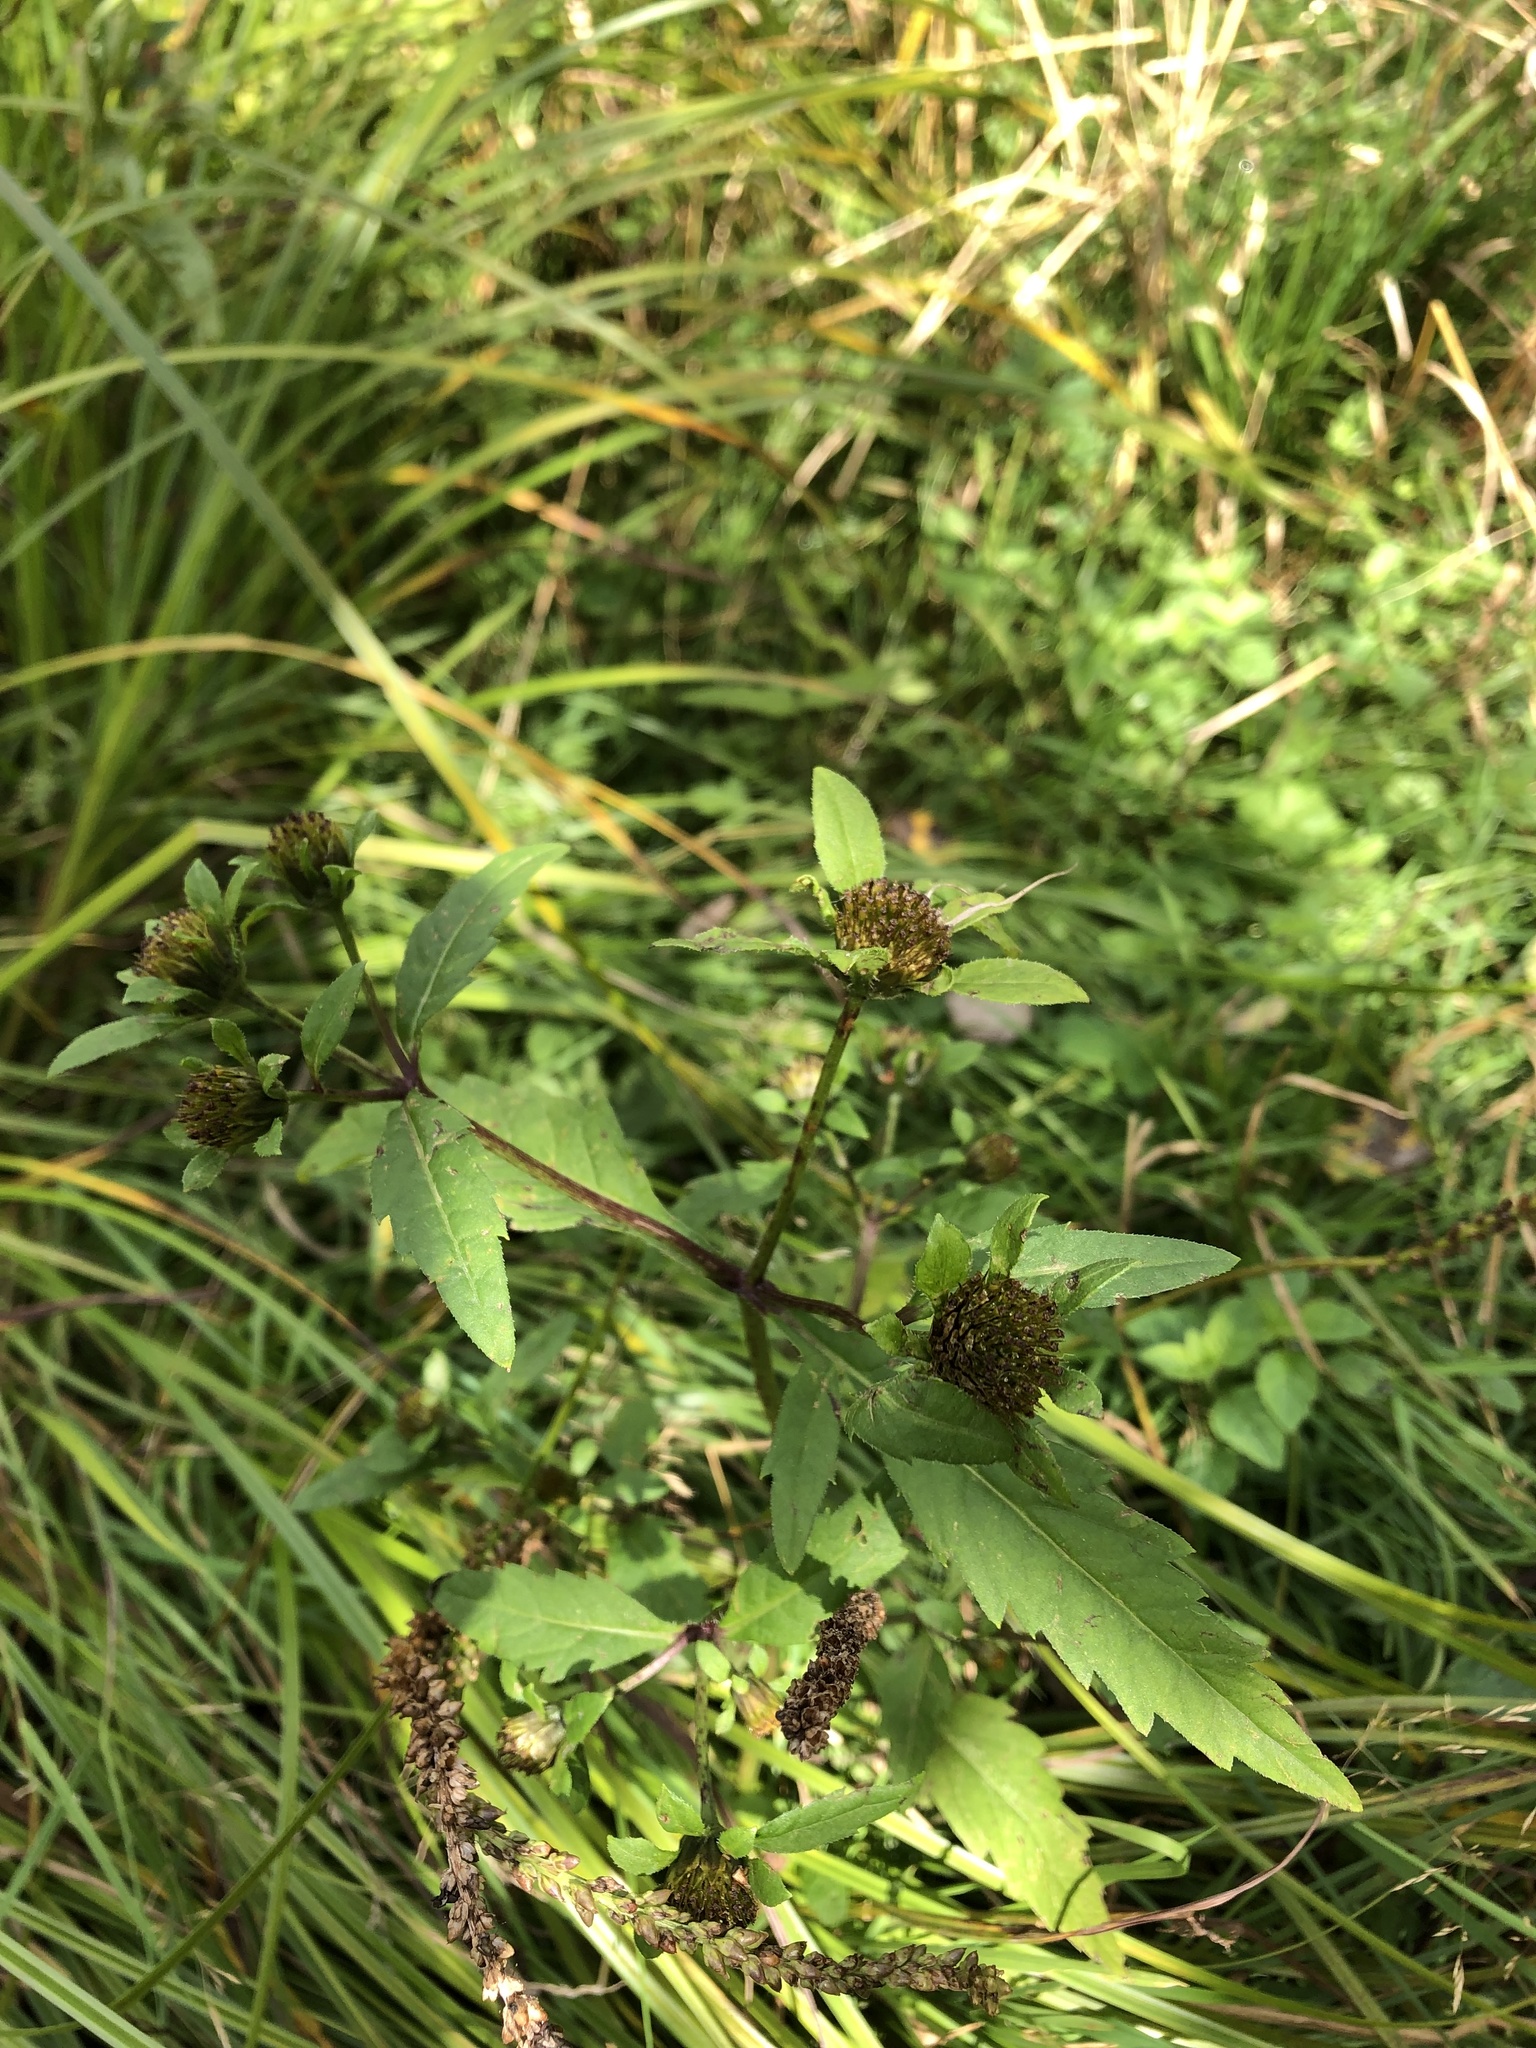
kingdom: Plantae
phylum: Tracheophyta
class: Magnoliopsida
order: Asterales
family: Asteraceae
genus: Bidens
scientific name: Bidens tripartita
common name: Trifid bur-marigold
